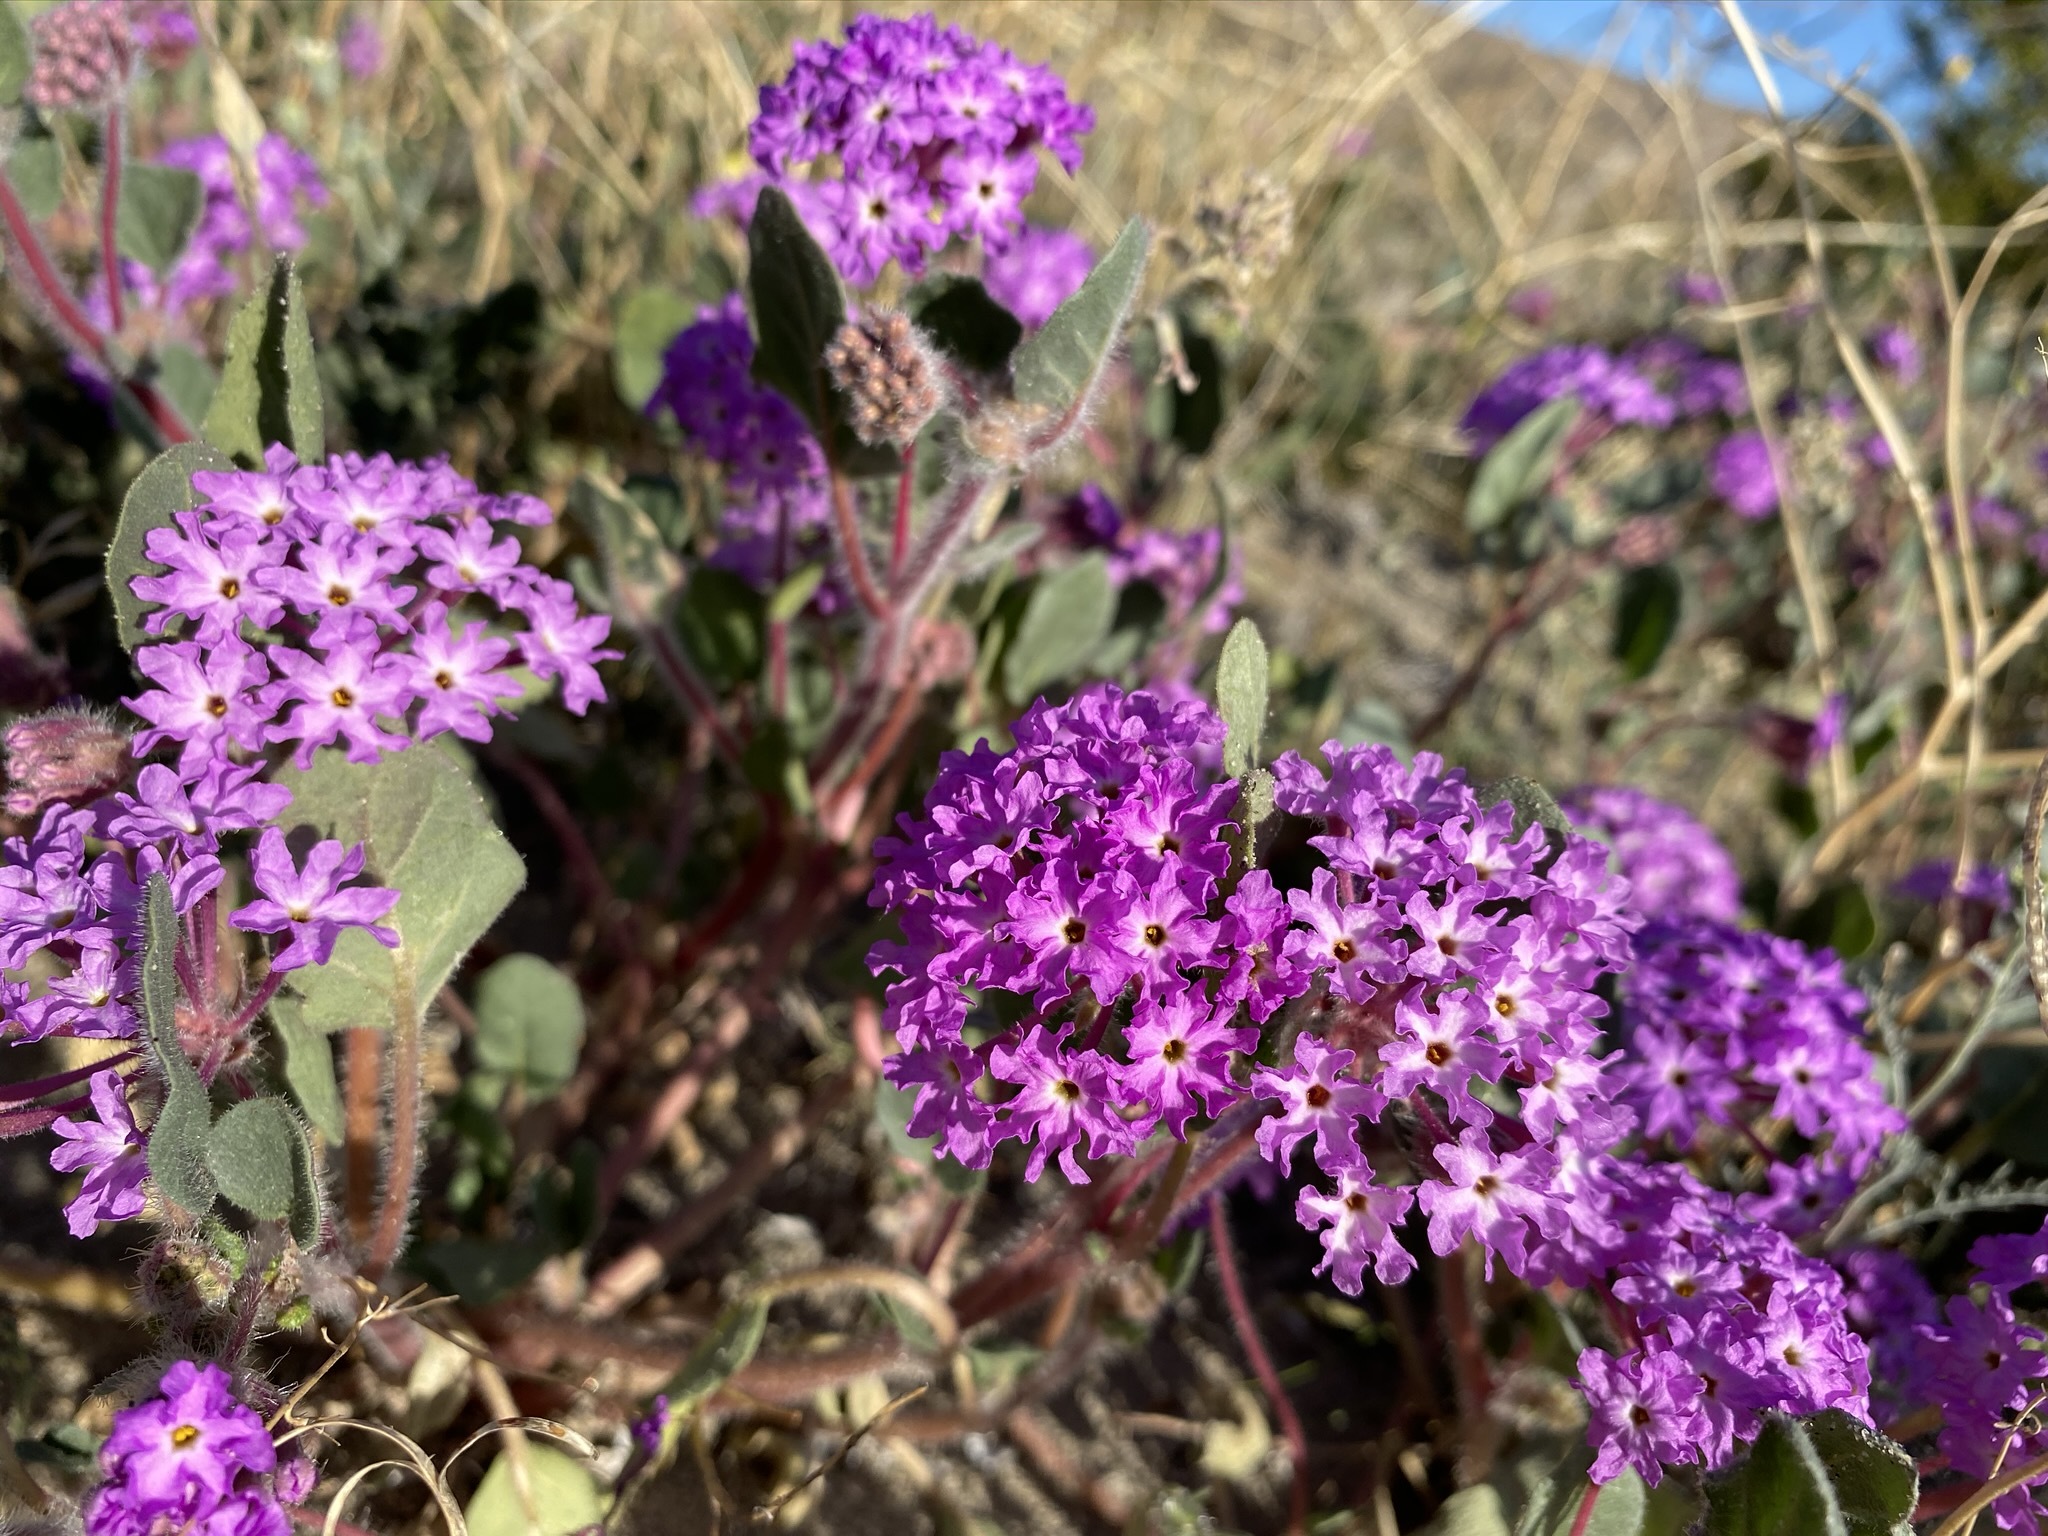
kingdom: Plantae
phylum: Tracheophyta
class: Magnoliopsida
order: Caryophyllales
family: Nyctaginaceae
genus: Abronia
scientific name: Abronia villosa
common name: Desert sand-verbena
